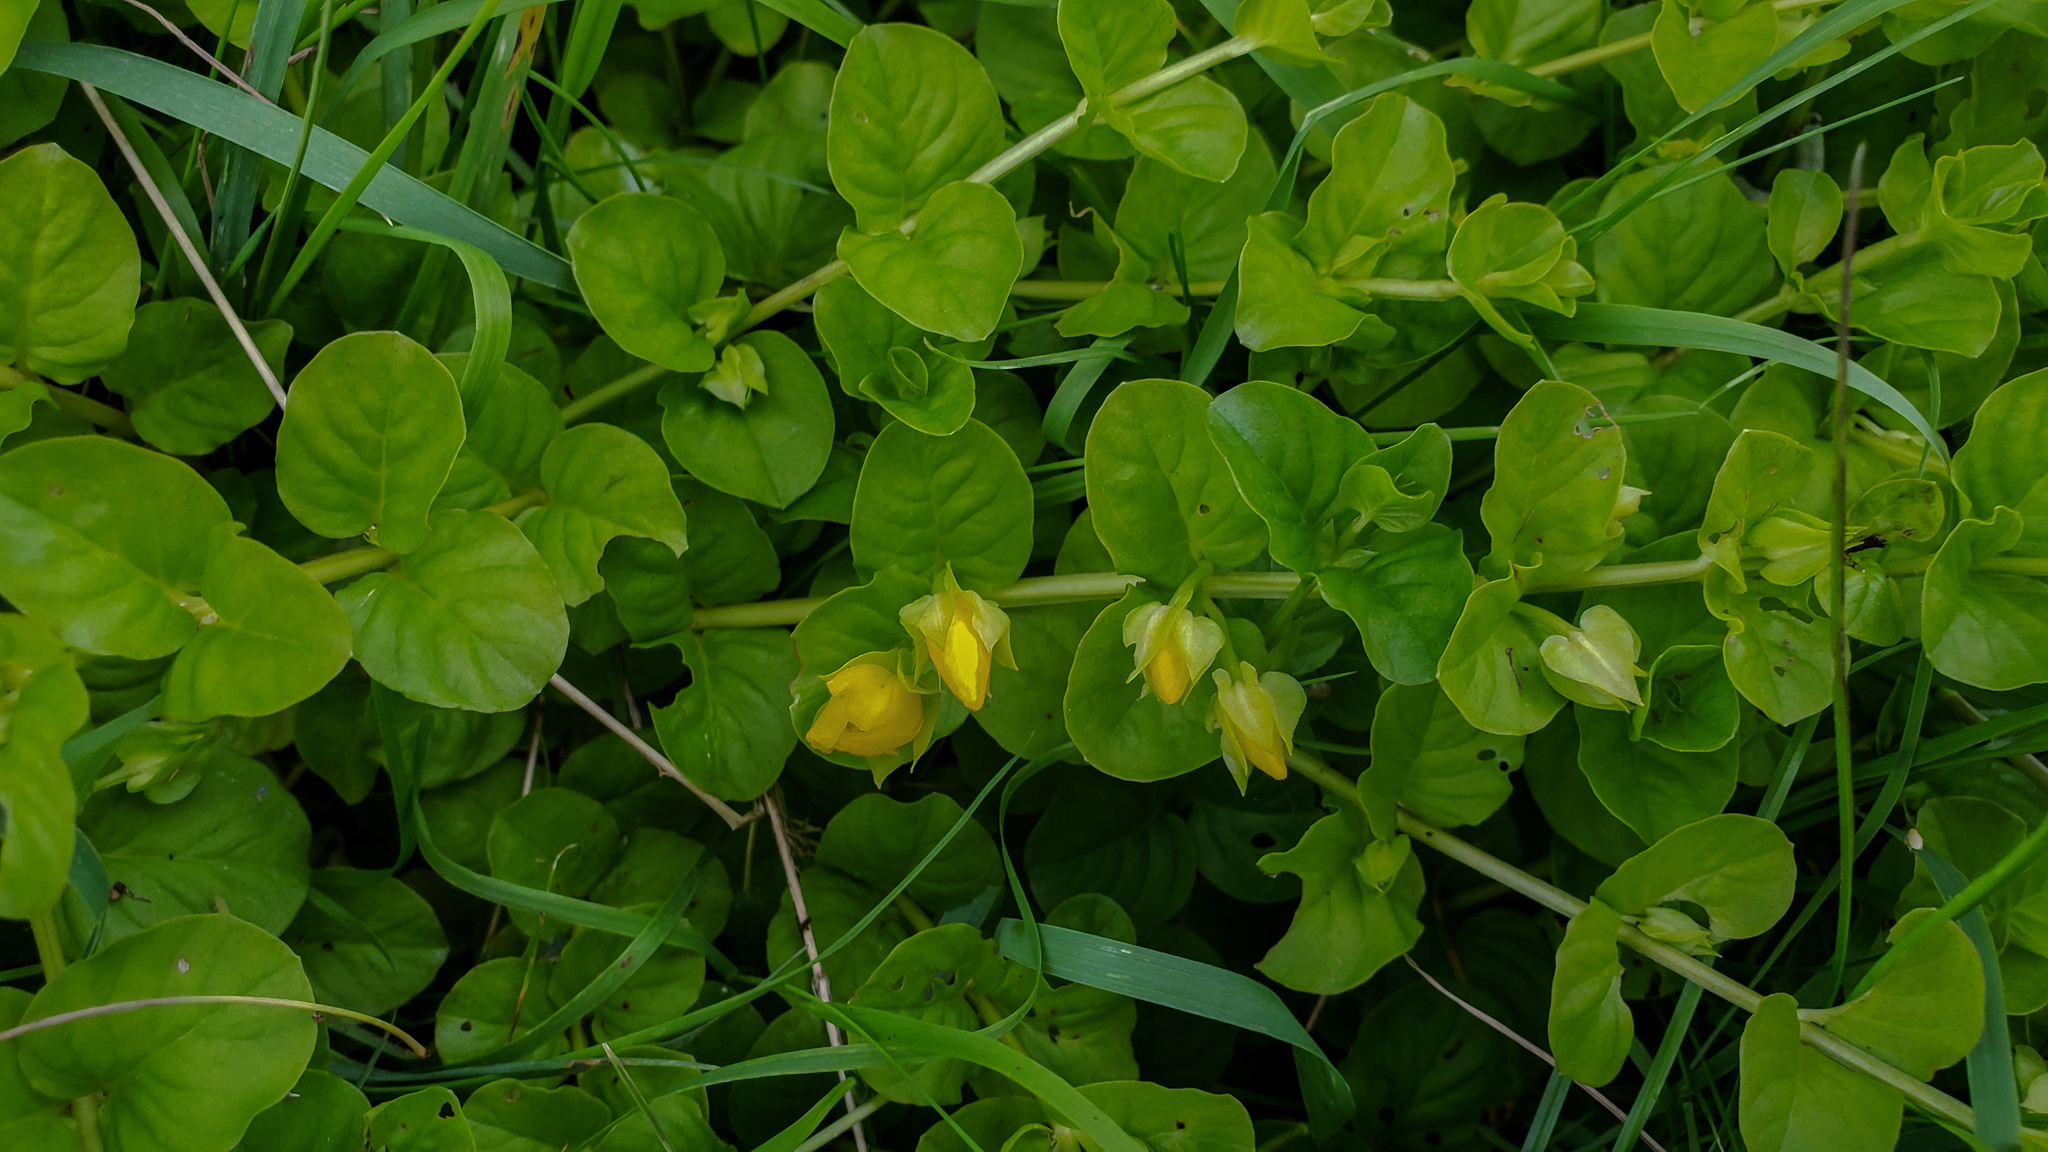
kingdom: Plantae
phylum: Tracheophyta
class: Magnoliopsida
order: Ericales
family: Primulaceae
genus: Lysimachia
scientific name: Lysimachia nummularia
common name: Moneywort
